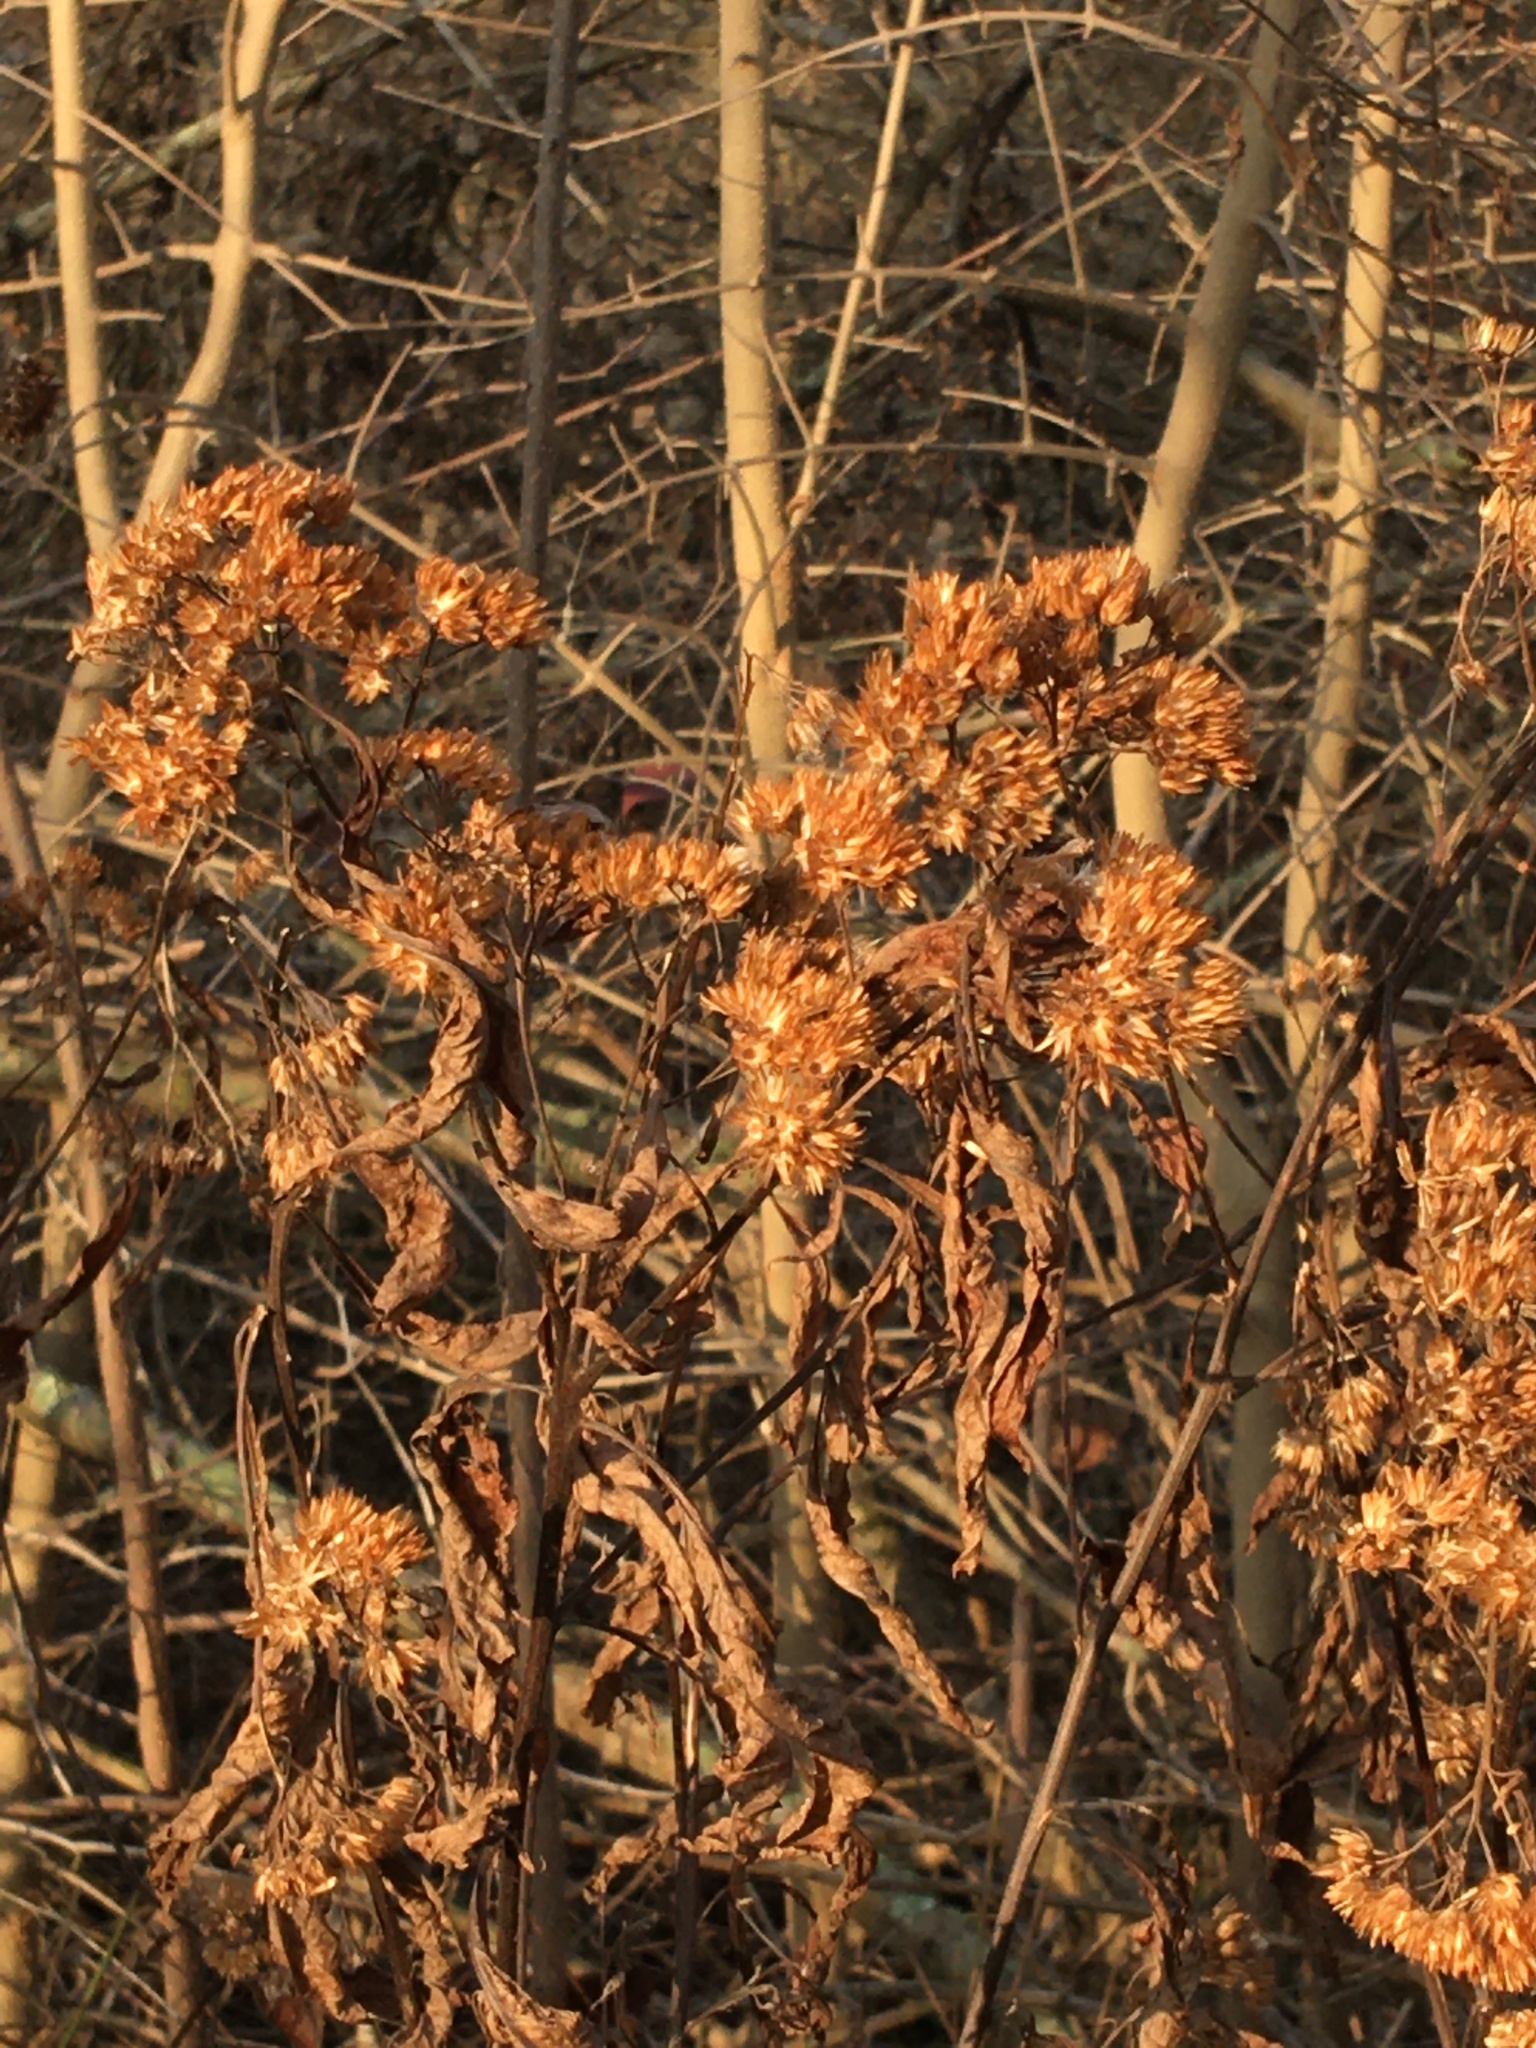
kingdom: Plantae
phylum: Tracheophyta
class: Magnoliopsida
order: Asterales
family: Asteraceae
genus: Pluchea
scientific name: Pluchea camphorata
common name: Camphor pluchea
